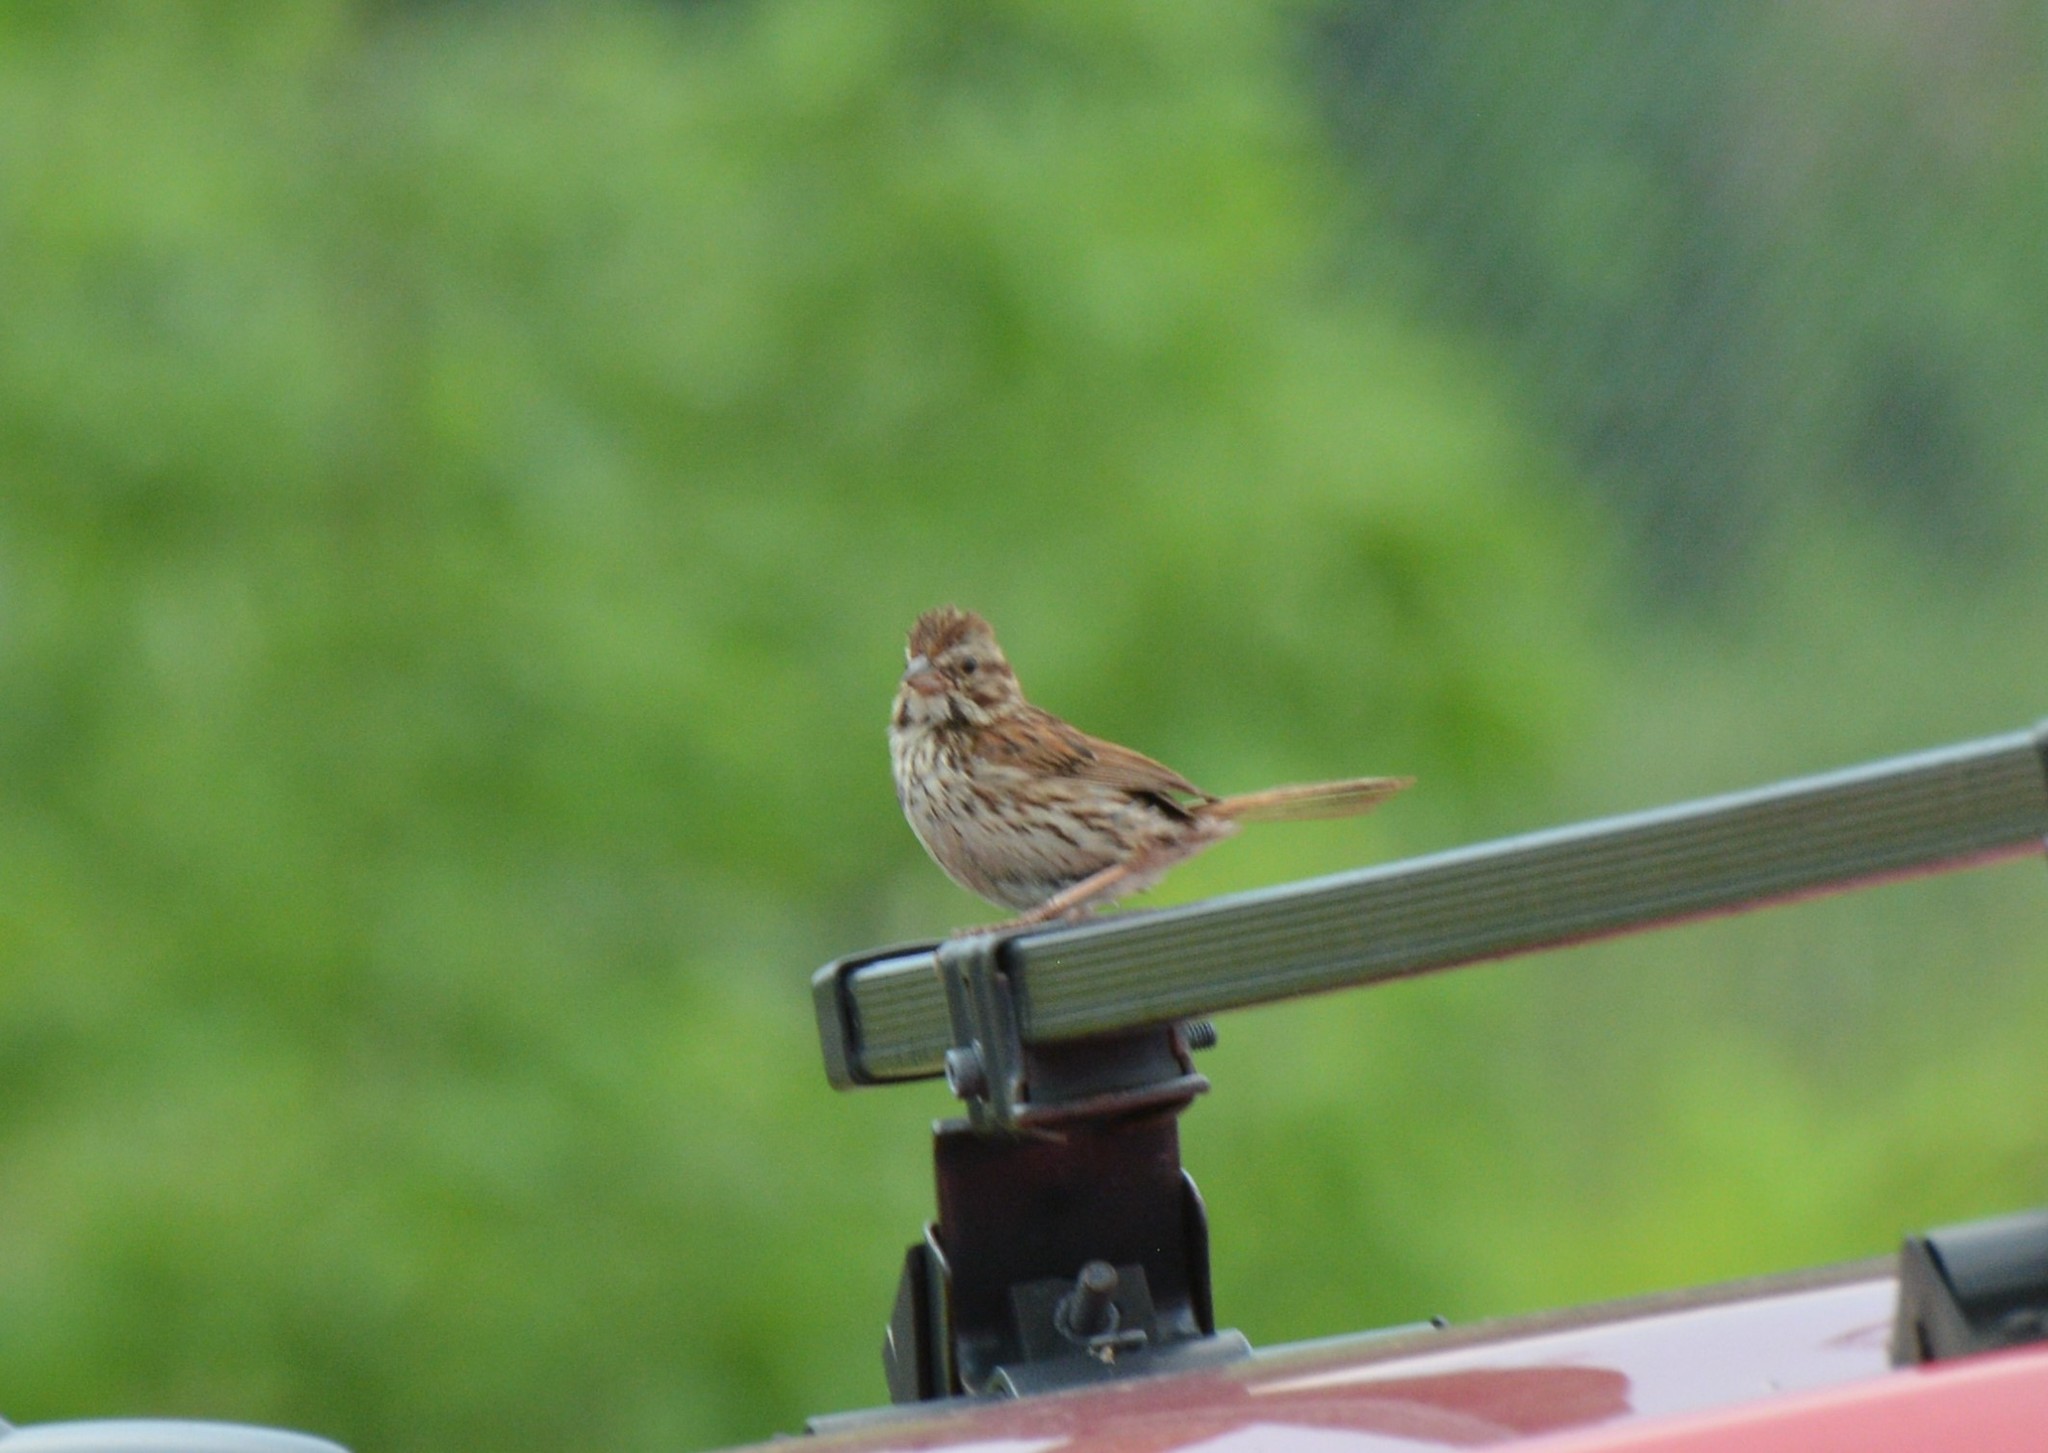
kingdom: Animalia
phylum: Chordata
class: Aves
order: Passeriformes
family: Passerellidae
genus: Melospiza
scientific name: Melospiza melodia
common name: Song sparrow
